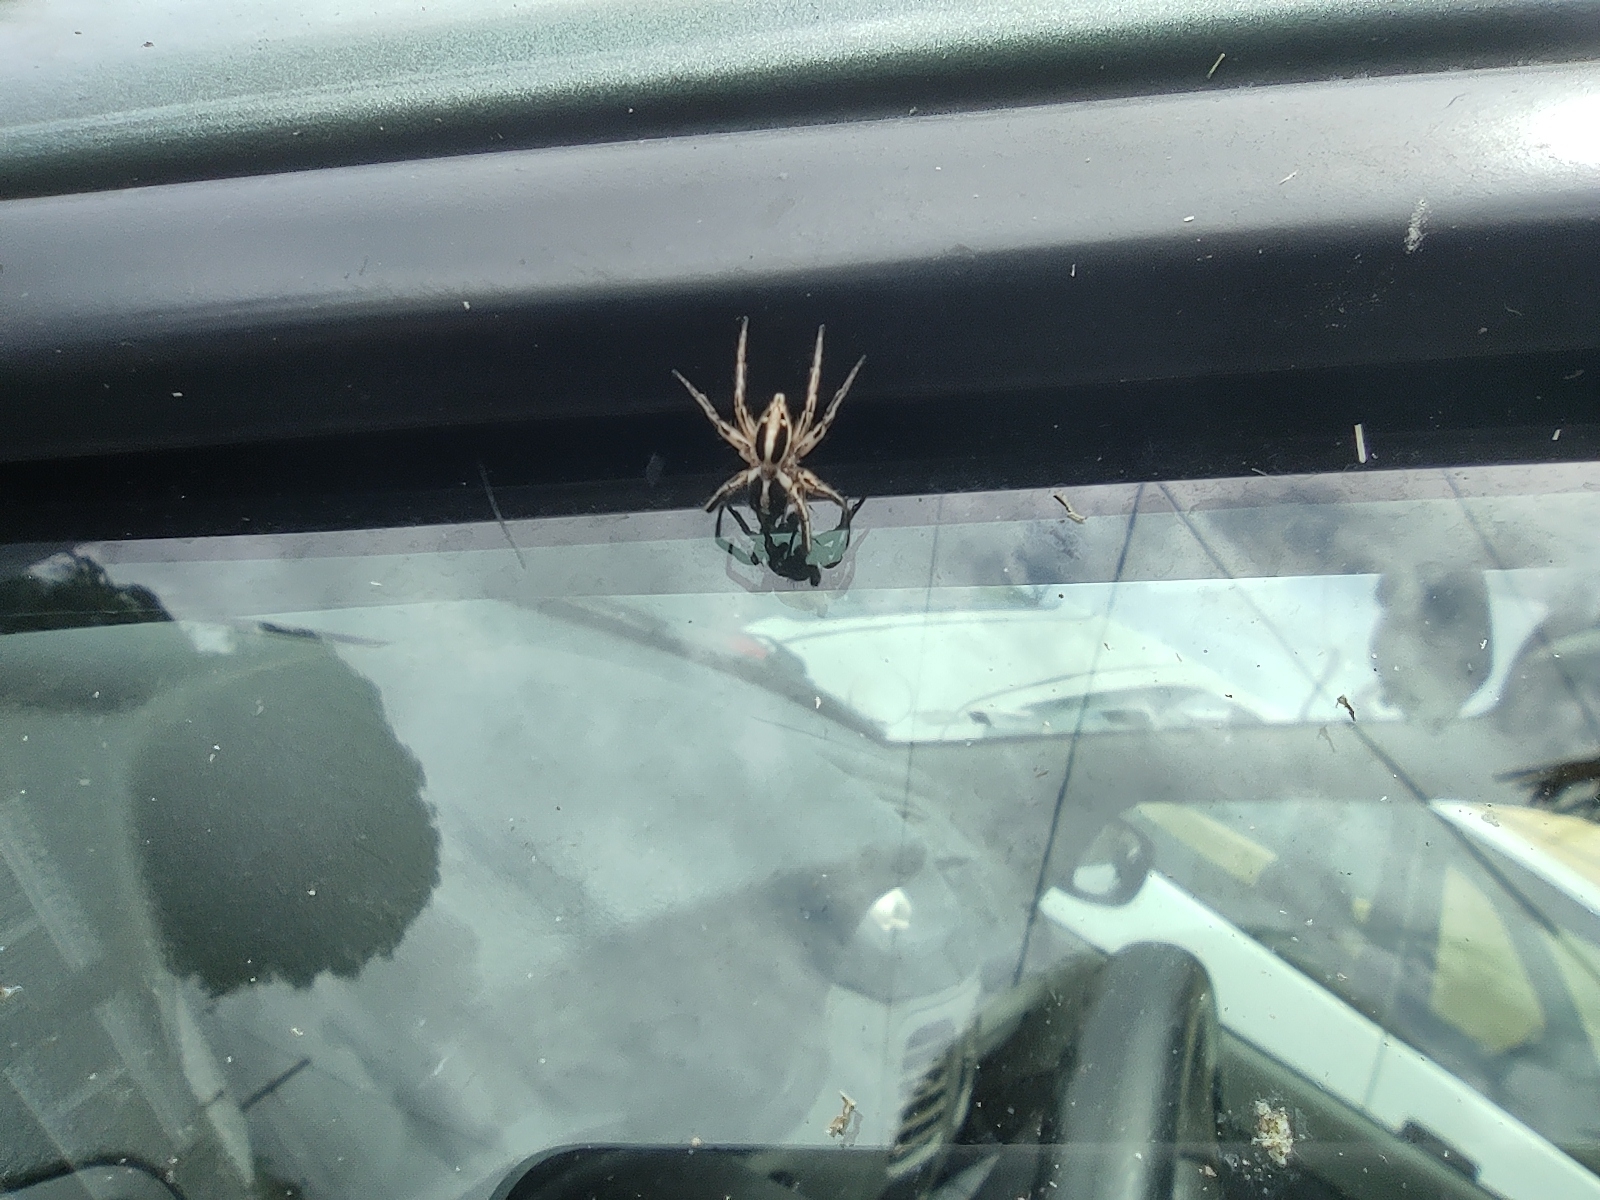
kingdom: Animalia
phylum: Arthropoda
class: Arachnida
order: Araneae
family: Salticidae
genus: Plexippus
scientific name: Plexippus paykulli
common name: Pantropical jumper
